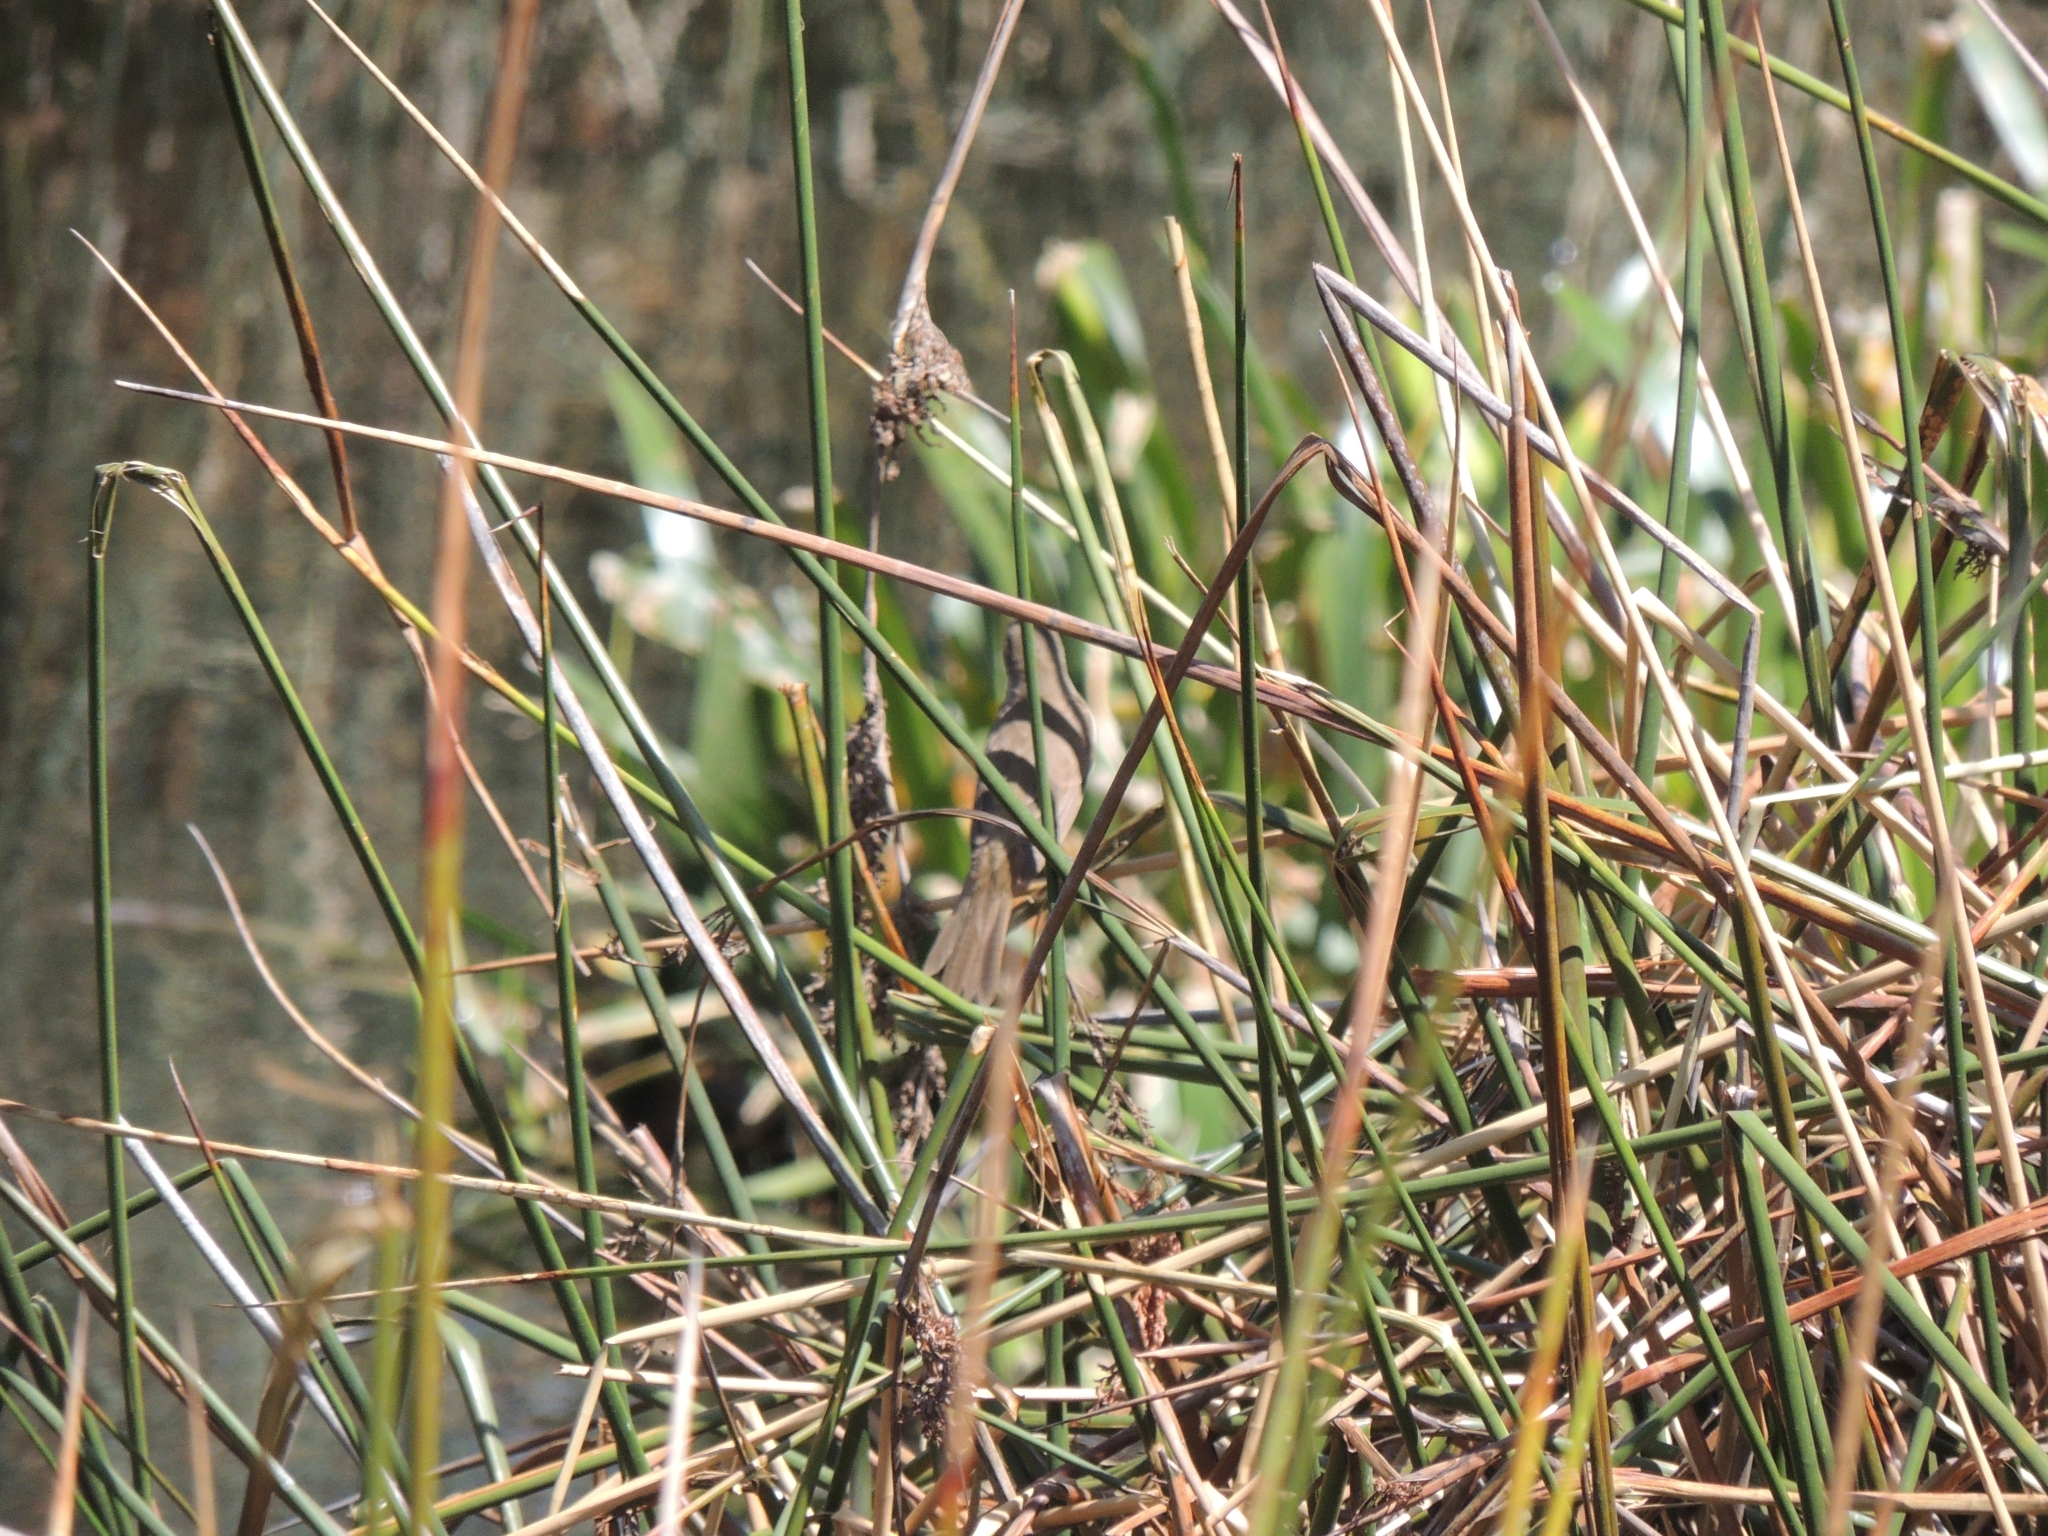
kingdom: Animalia
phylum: Chordata
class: Aves
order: Passeriformes
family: Acrocephalidae
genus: Acrocephalus
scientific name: Acrocephalus australis
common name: Australian reed warbler
